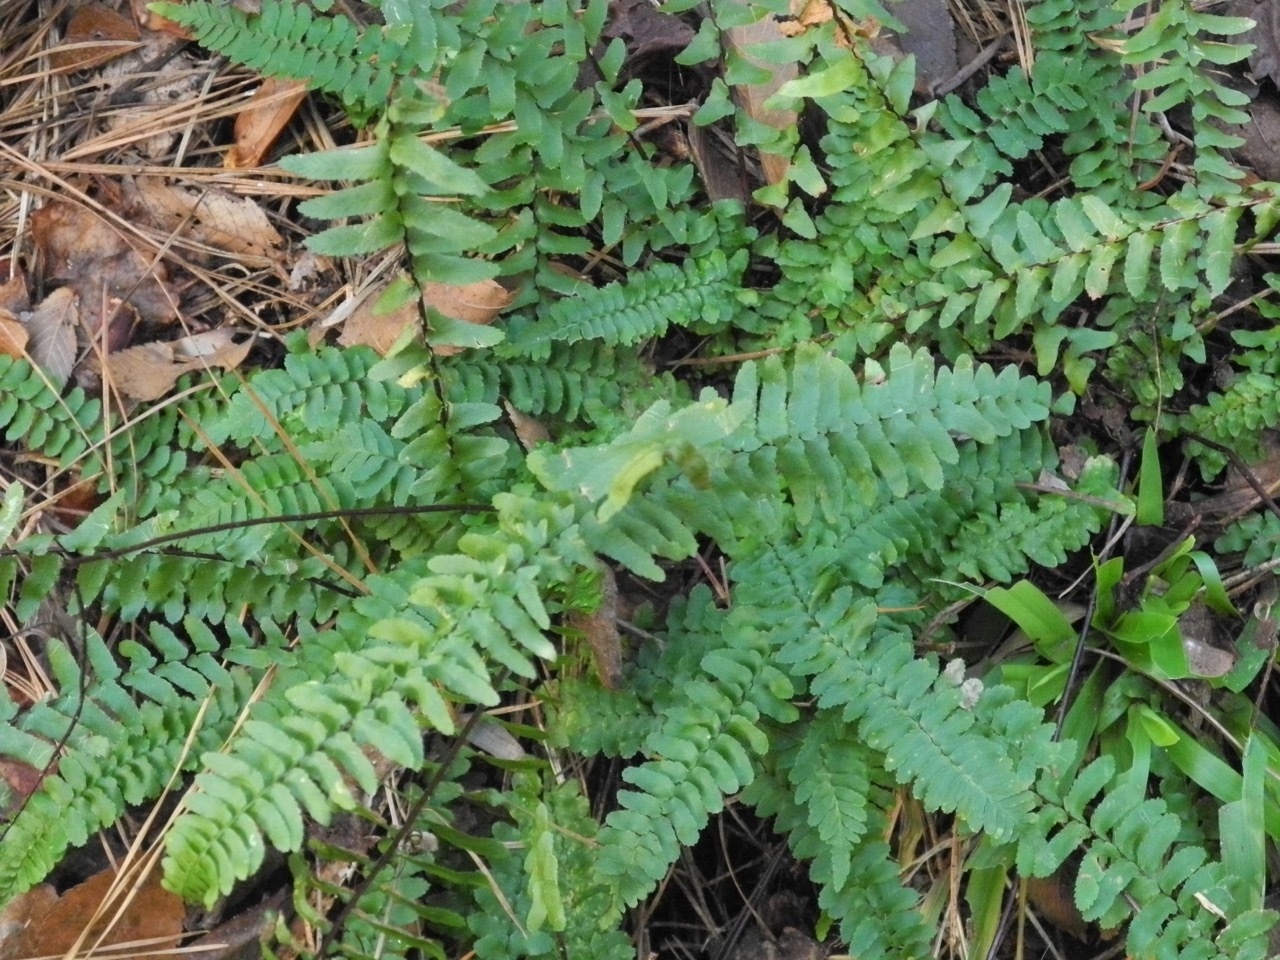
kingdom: Plantae
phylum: Tracheophyta
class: Polypodiopsida
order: Polypodiales
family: Aspleniaceae
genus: Asplenium
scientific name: Asplenium platyneuron
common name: Ebony spleenwort
